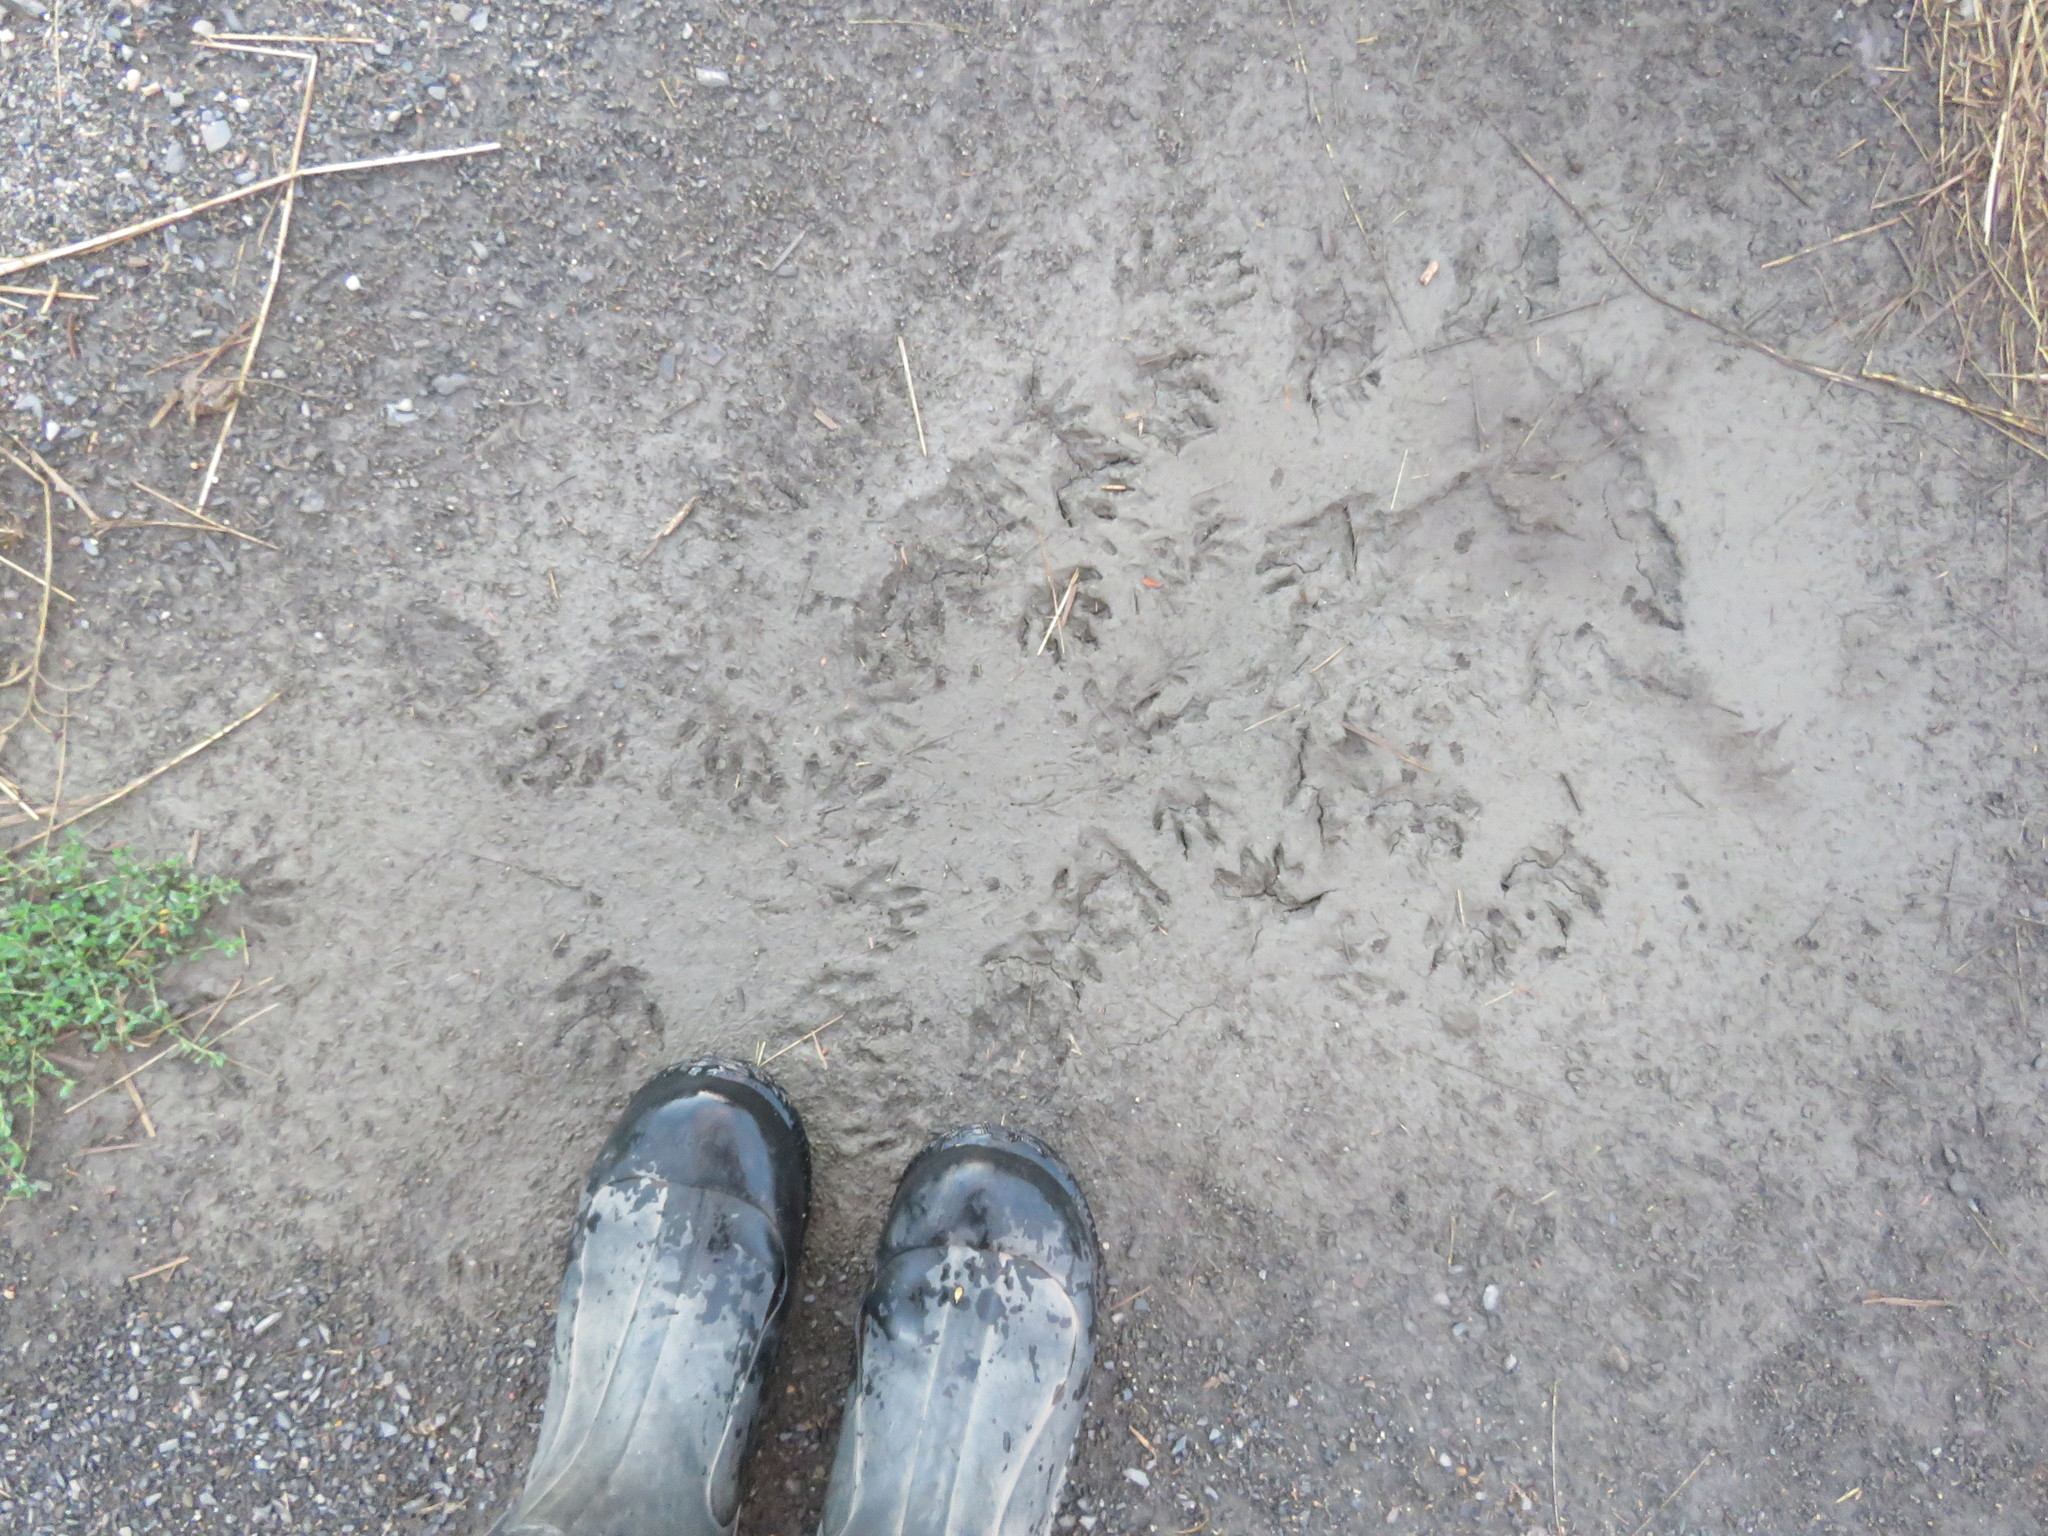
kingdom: Animalia
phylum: Chordata
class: Mammalia
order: Carnivora
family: Procyonidae
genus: Procyon
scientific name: Procyon lotor
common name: Raccoon
